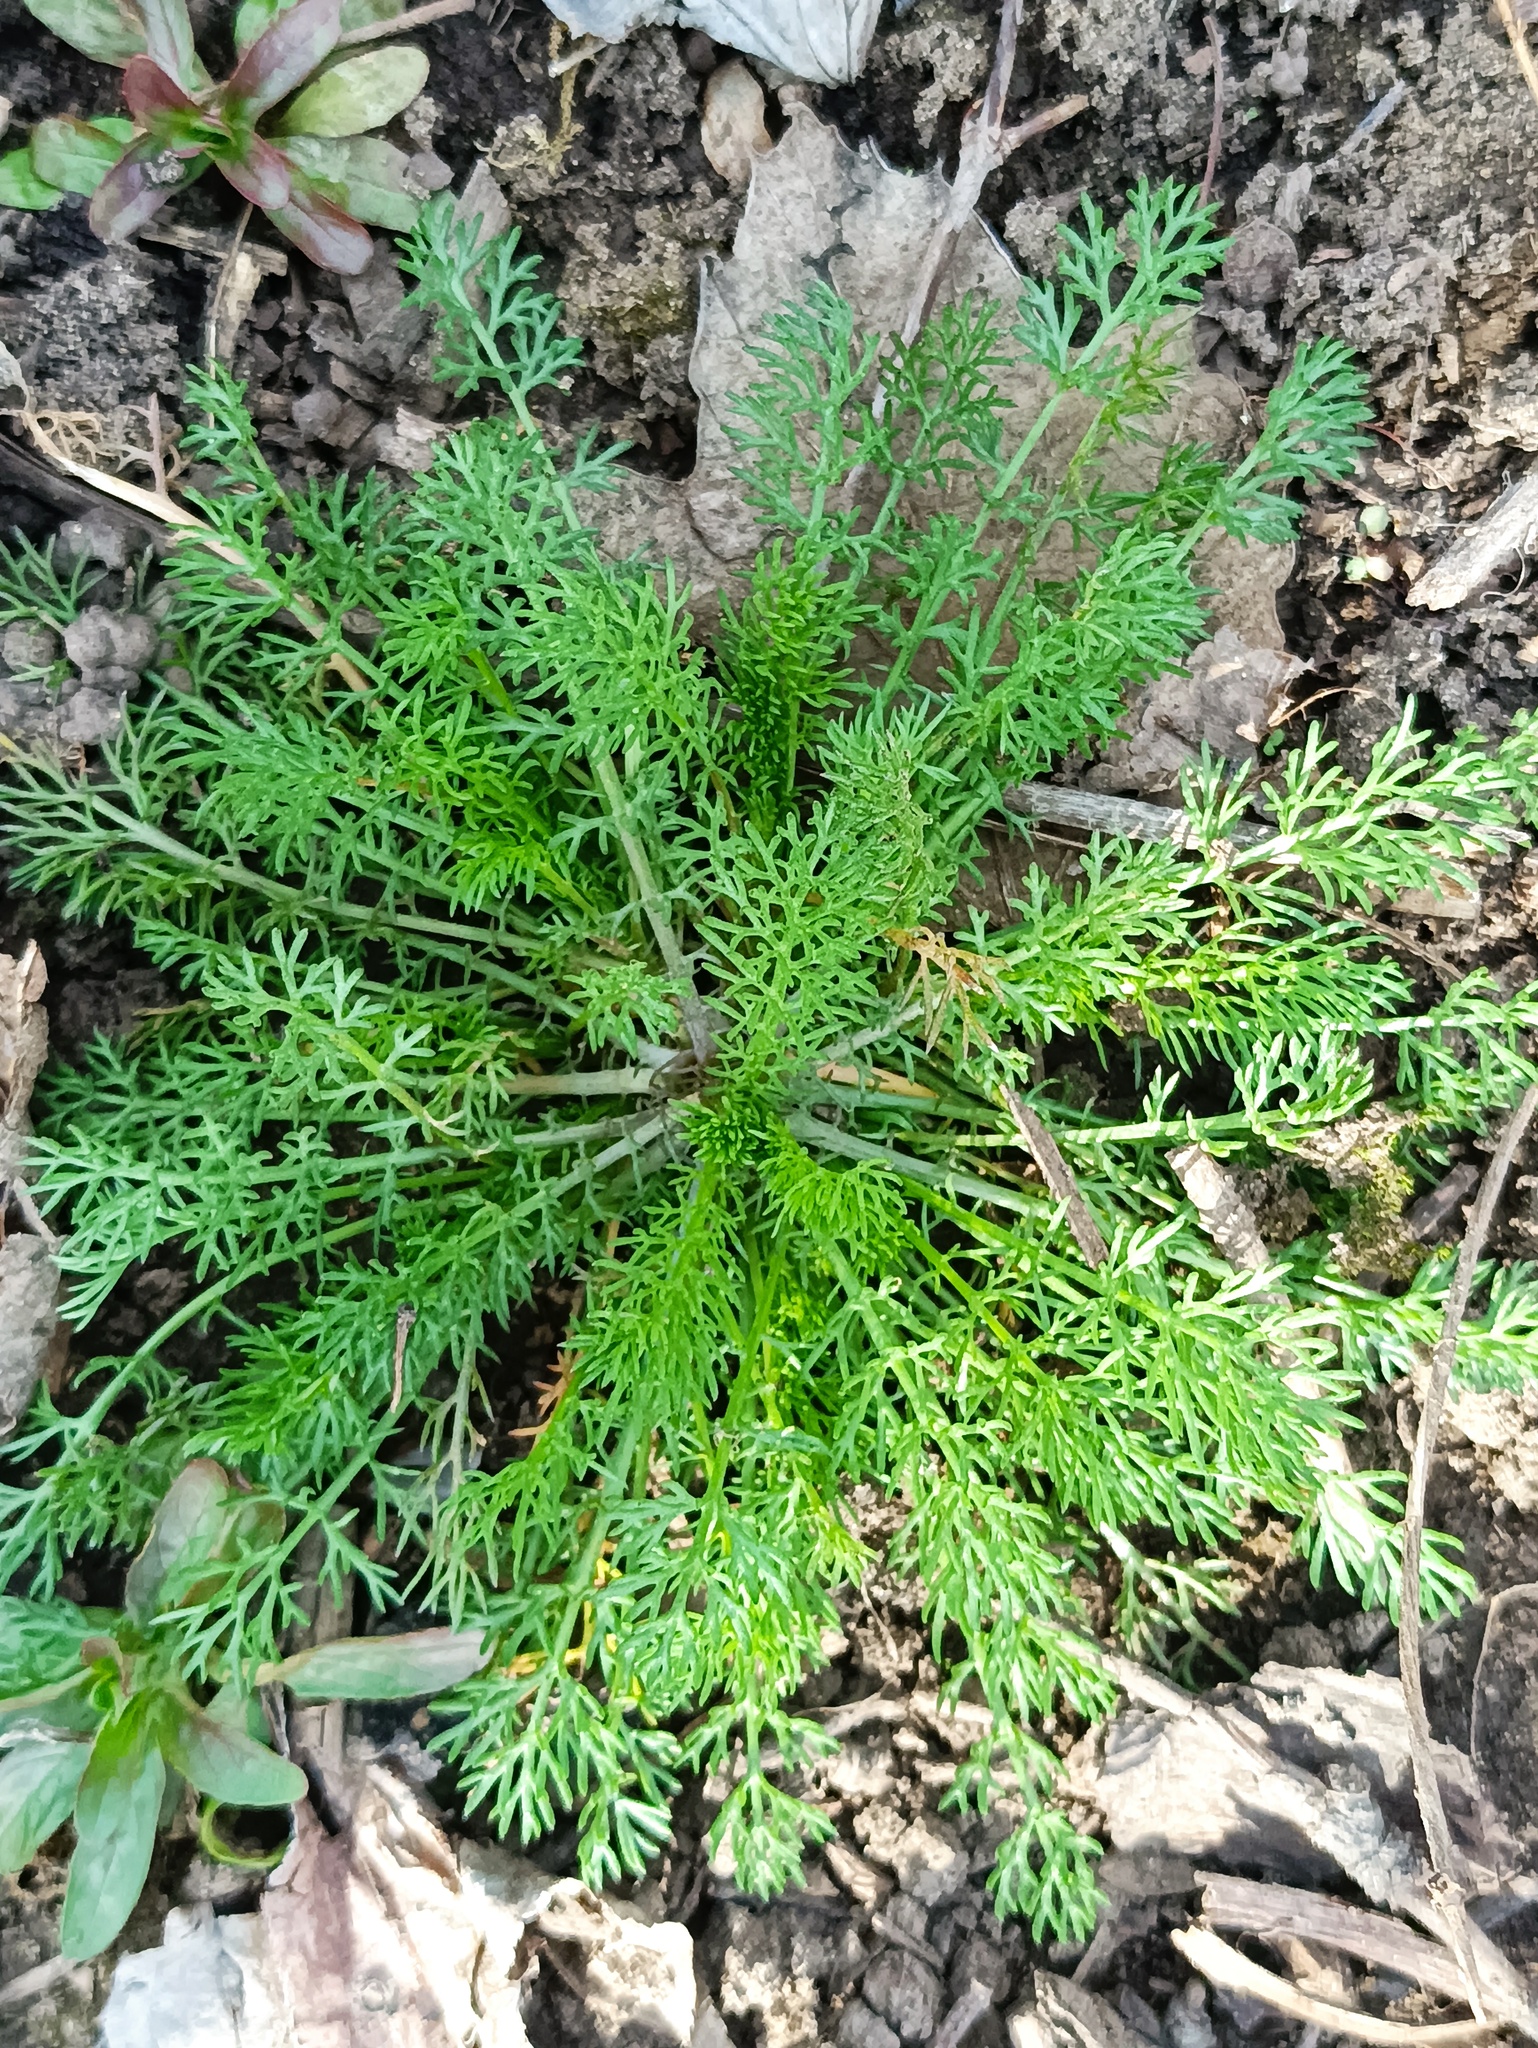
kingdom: Plantae
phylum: Tracheophyta
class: Magnoliopsida
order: Asterales
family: Asteraceae
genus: Tripleurospermum
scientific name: Tripleurospermum inodorum
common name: Scentless mayweed
